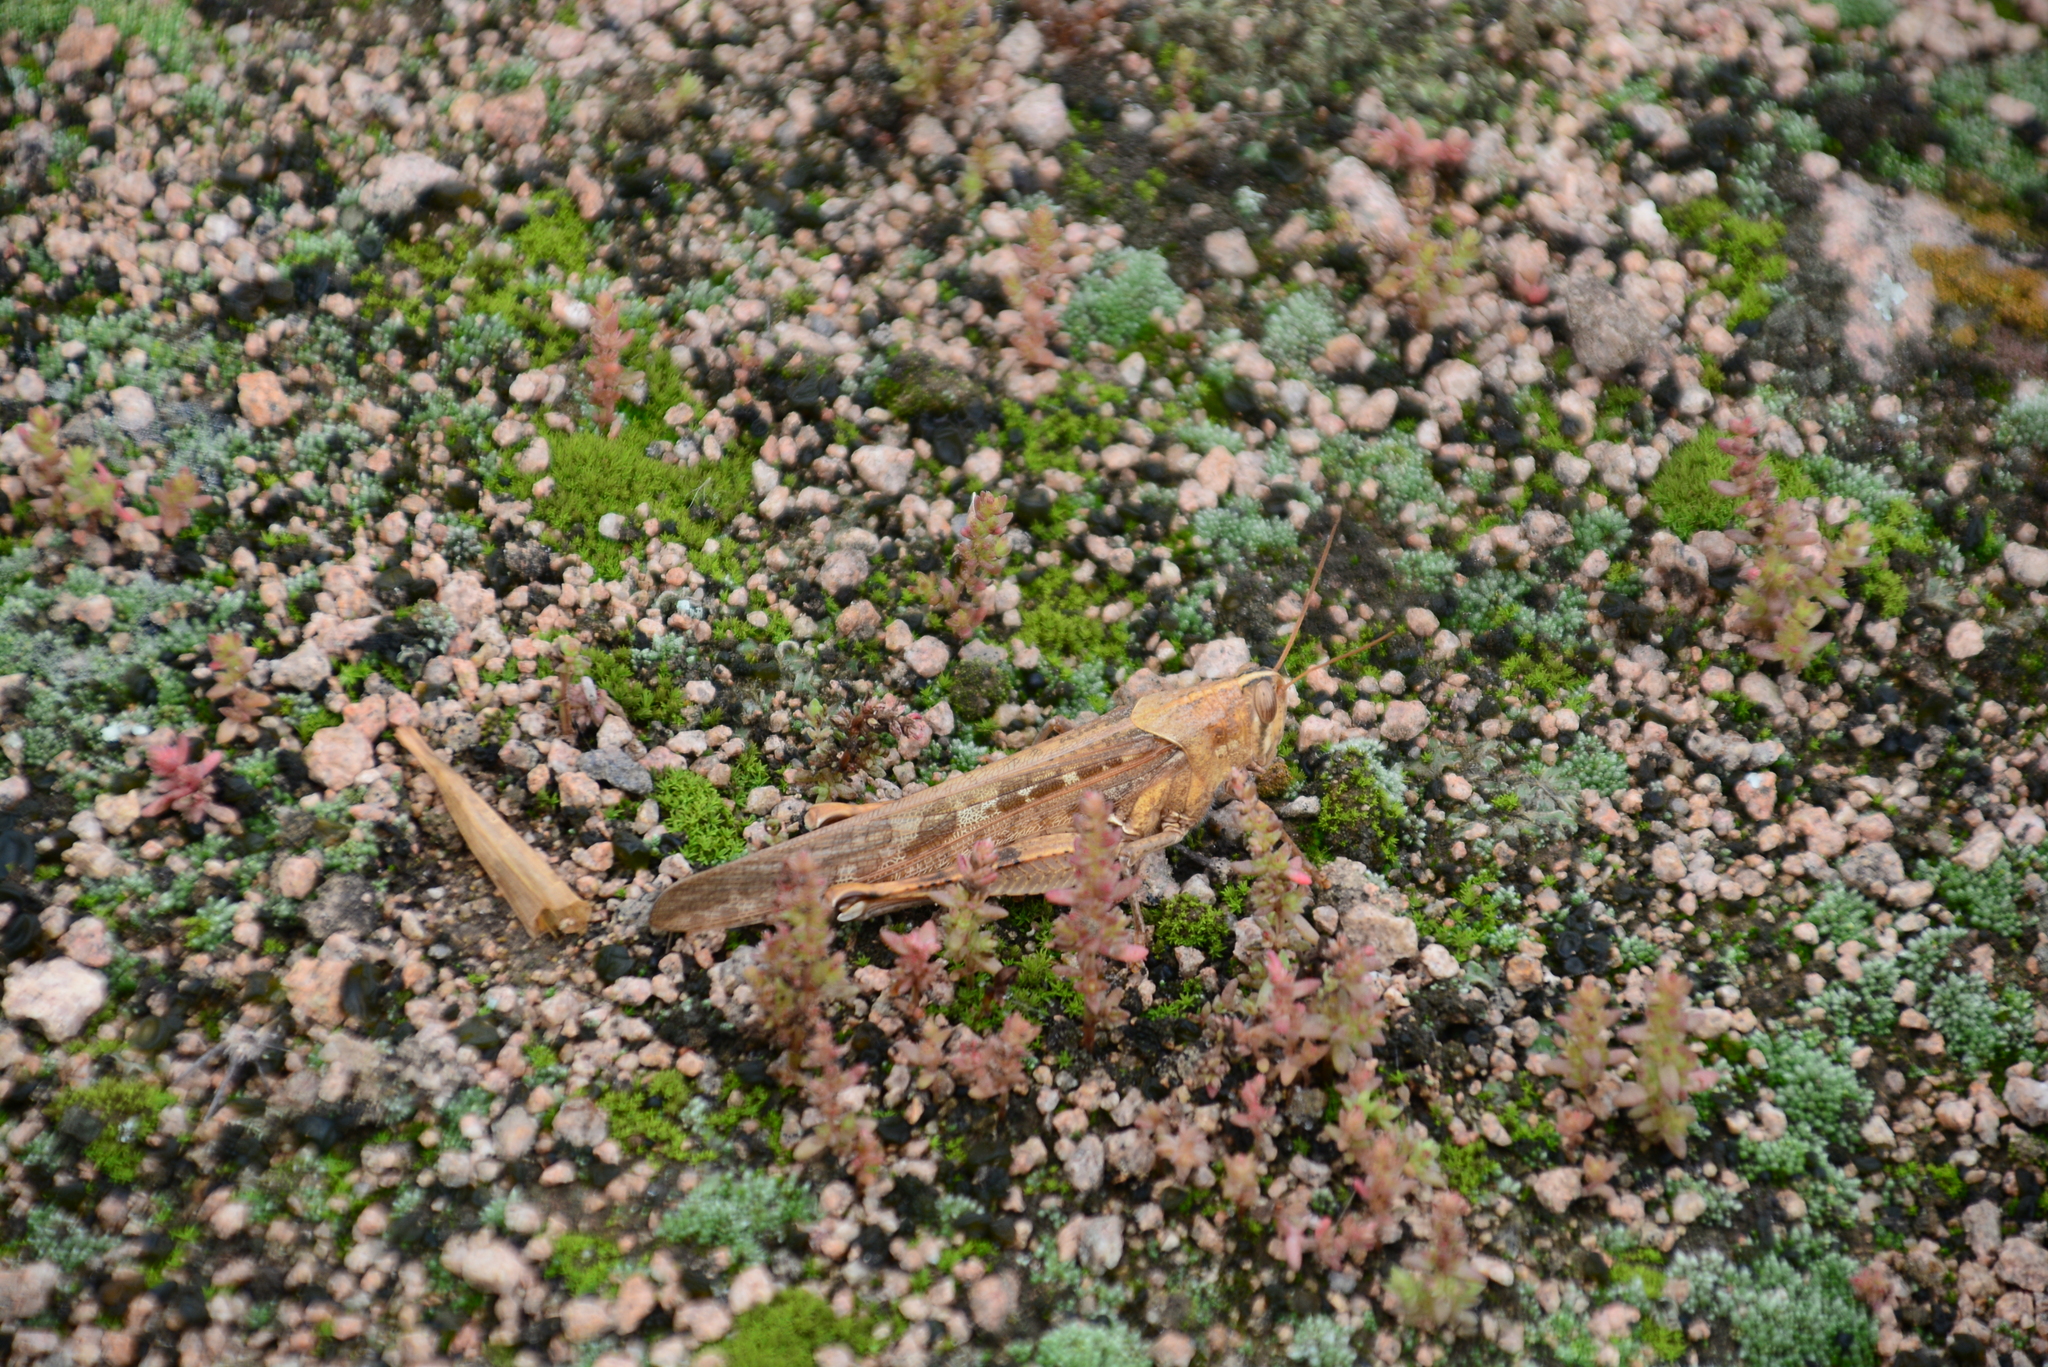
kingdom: Animalia
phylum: Arthropoda
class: Insecta
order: Orthoptera
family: Acrididae
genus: Schistocerca
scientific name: Schistocerca interrita
